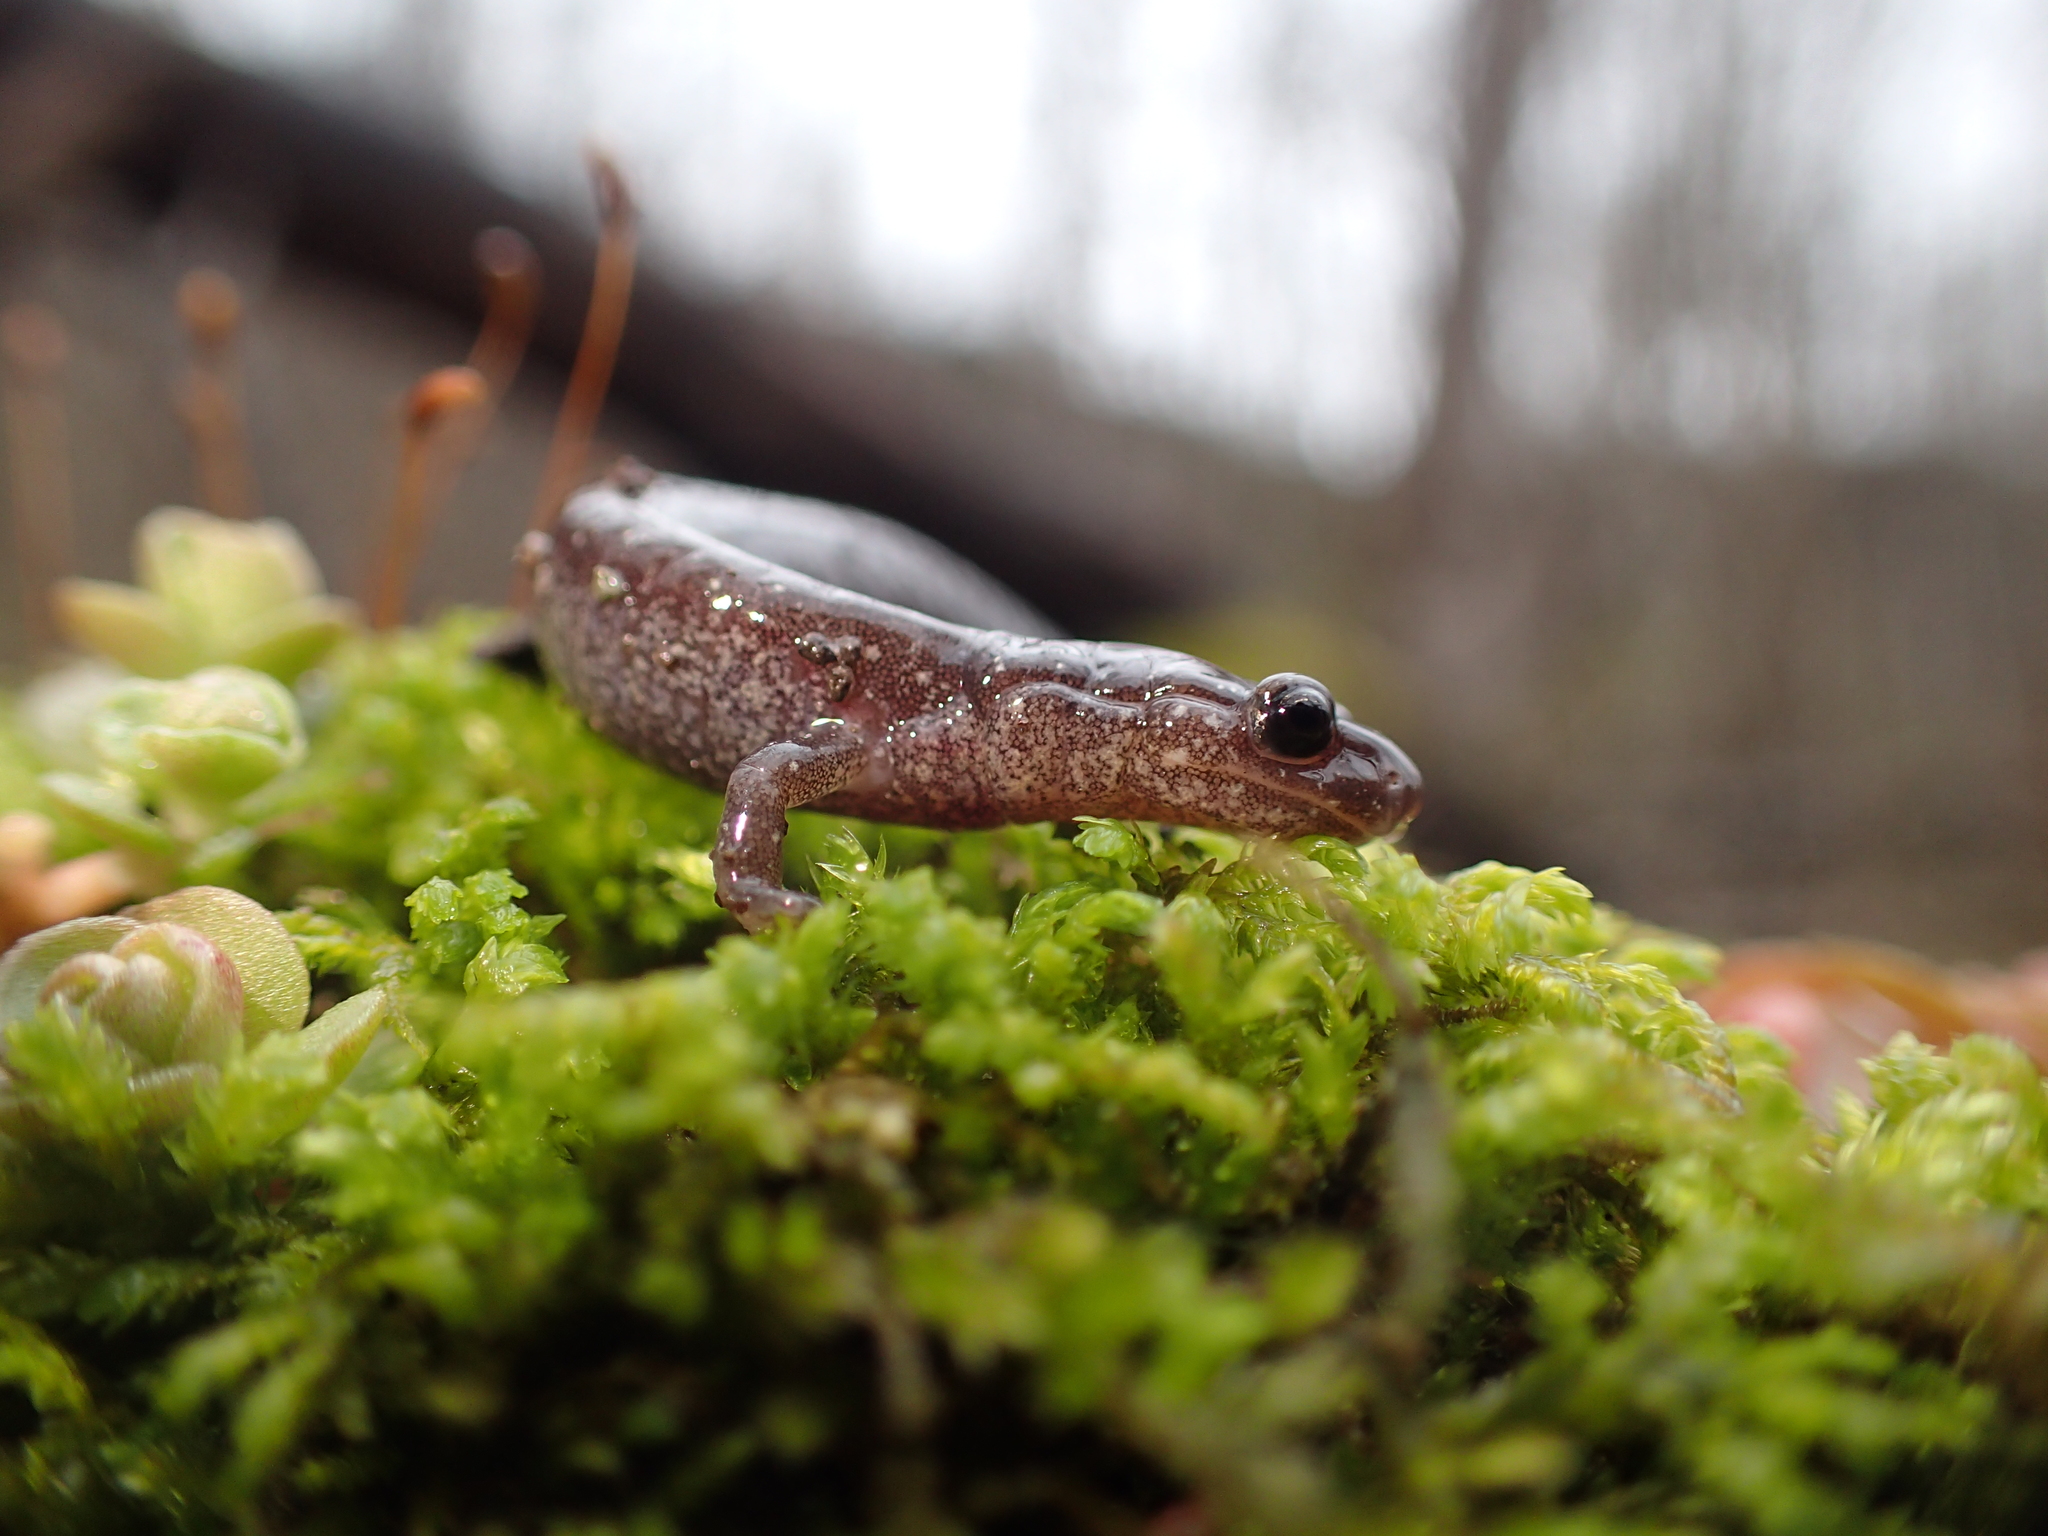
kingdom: Animalia
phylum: Chordata
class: Amphibia
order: Caudata
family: Plethodontidae
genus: Plethodon
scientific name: Plethodon cinereus
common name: Redback salamander
